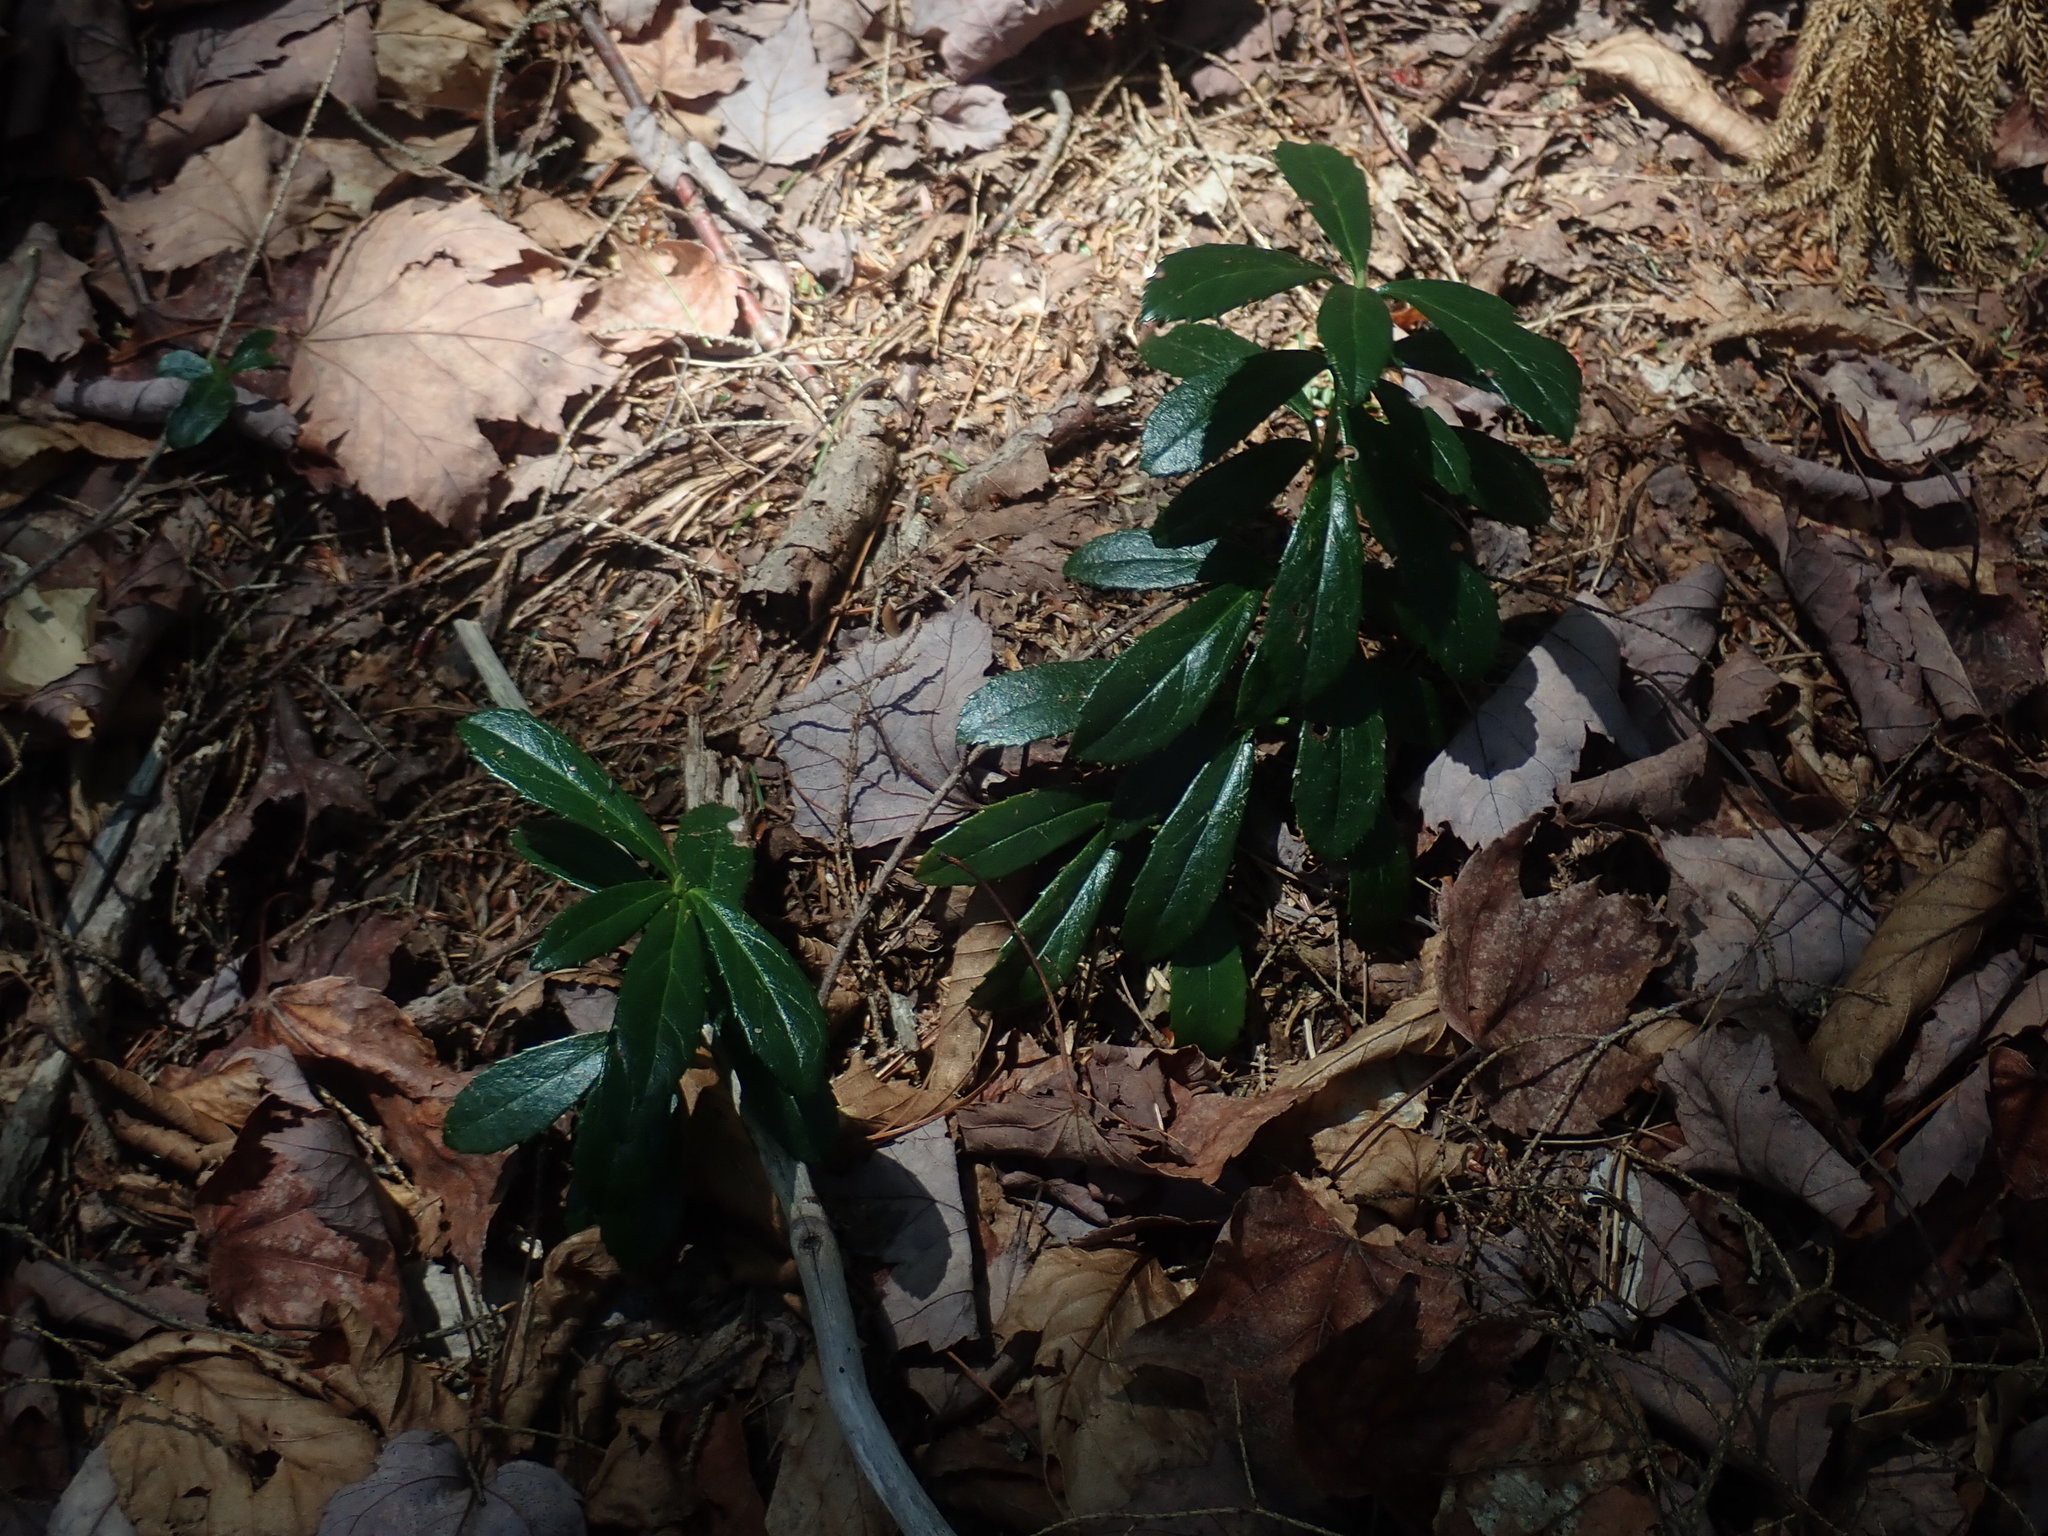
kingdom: Plantae
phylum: Tracheophyta
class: Magnoliopsida
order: Ericales
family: Ericaceae
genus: Chimaphila
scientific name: Chimaphila umbellata
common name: Pipsissewa
